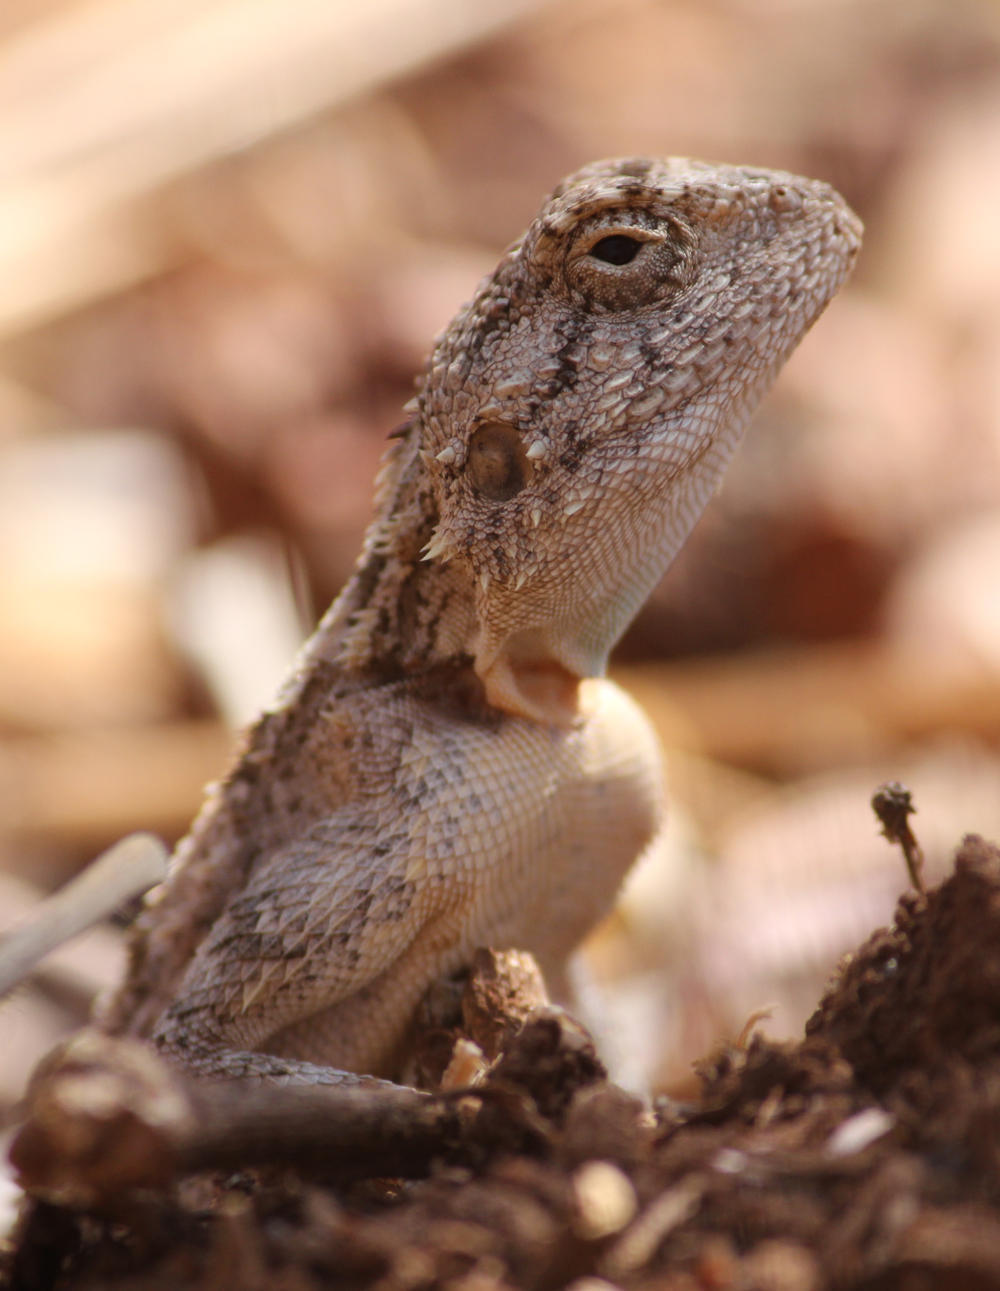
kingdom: Animalia
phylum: Chordata
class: Squamata
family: Agamidae
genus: Agama
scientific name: Agama armata
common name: Northern ground agama
